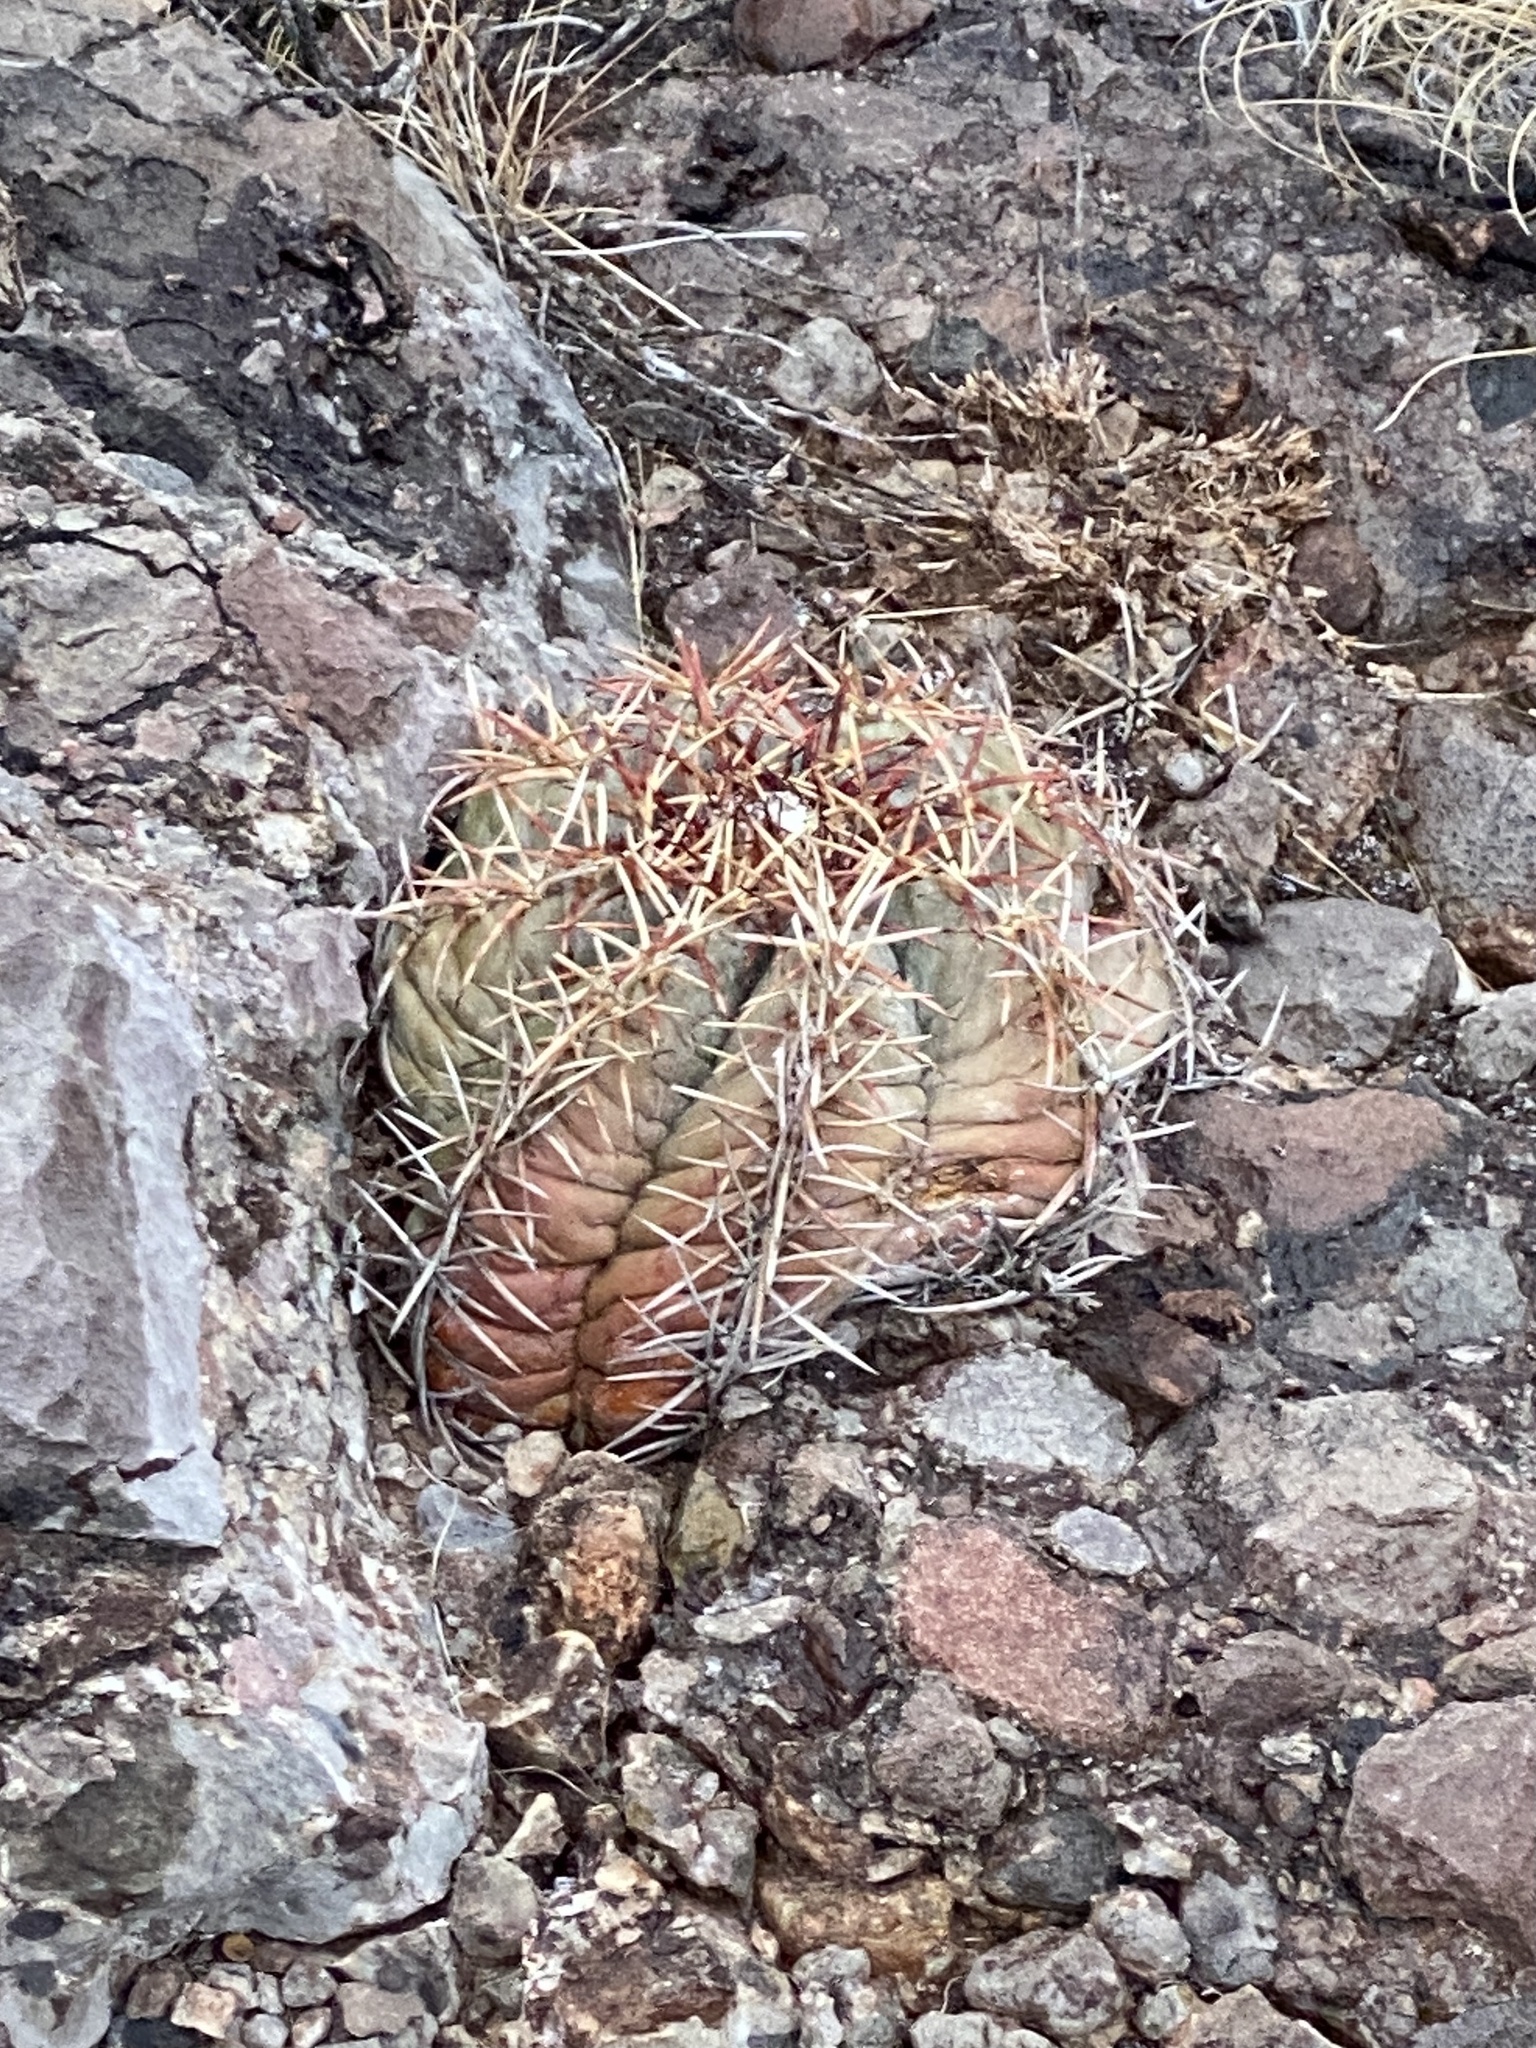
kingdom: Plantae
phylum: Tracheophyta
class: Magnoliopsida
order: Caryophyllales
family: Cactaceae
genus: Echinocactus
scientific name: Echinocactus horizonthalonius
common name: Devilshead
